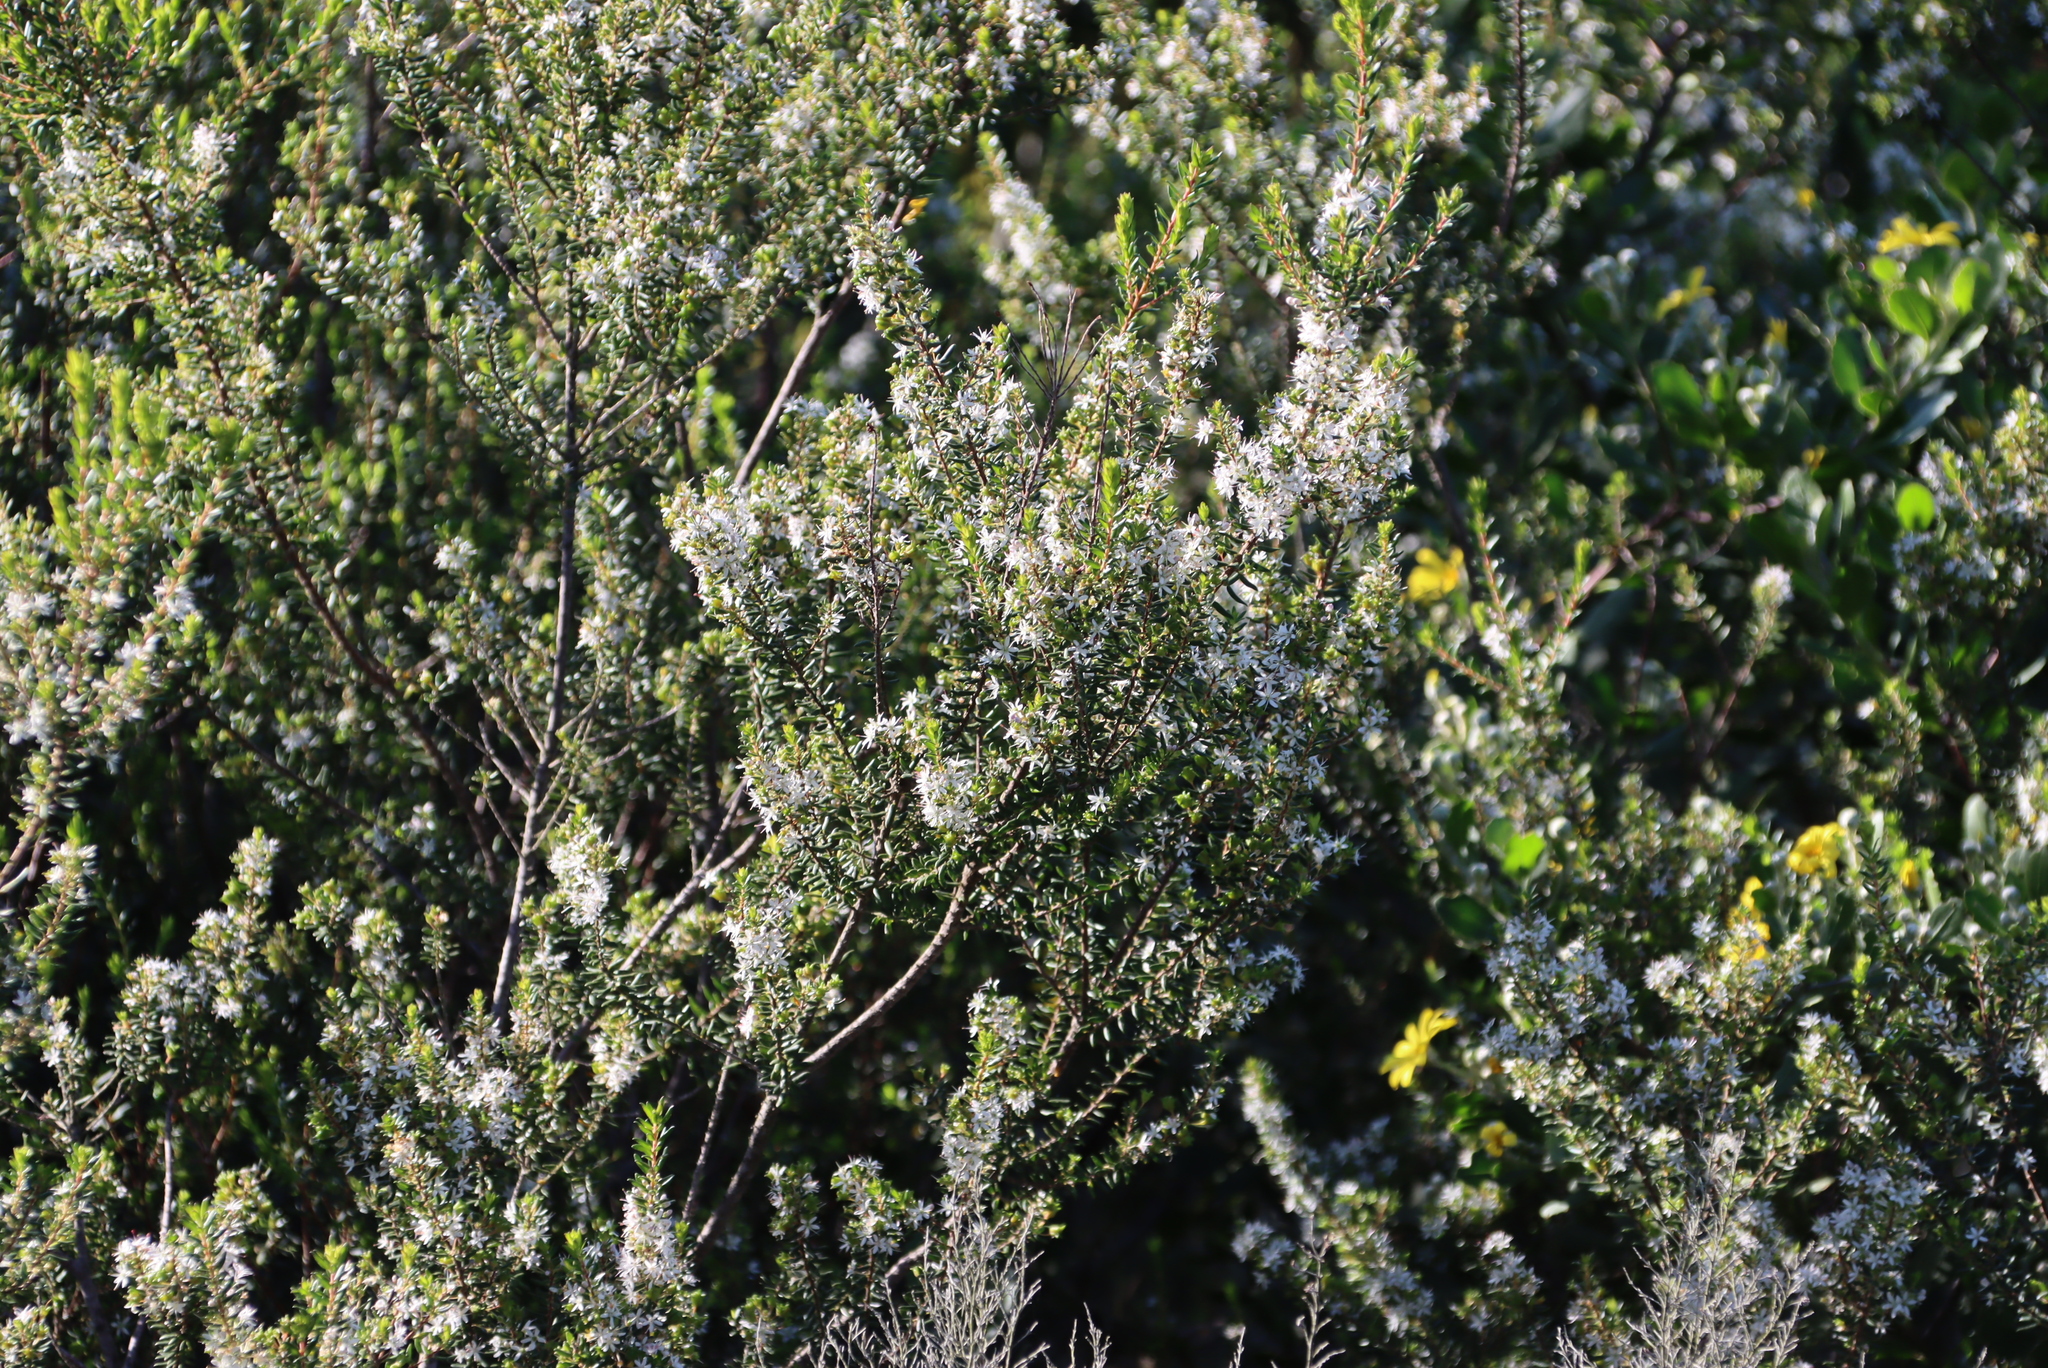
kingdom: Plantae
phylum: Tracheophyta
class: Magnoliopsida
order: Sapindales
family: Rutaceae
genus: Agathosma
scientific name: Agathosma ovata
